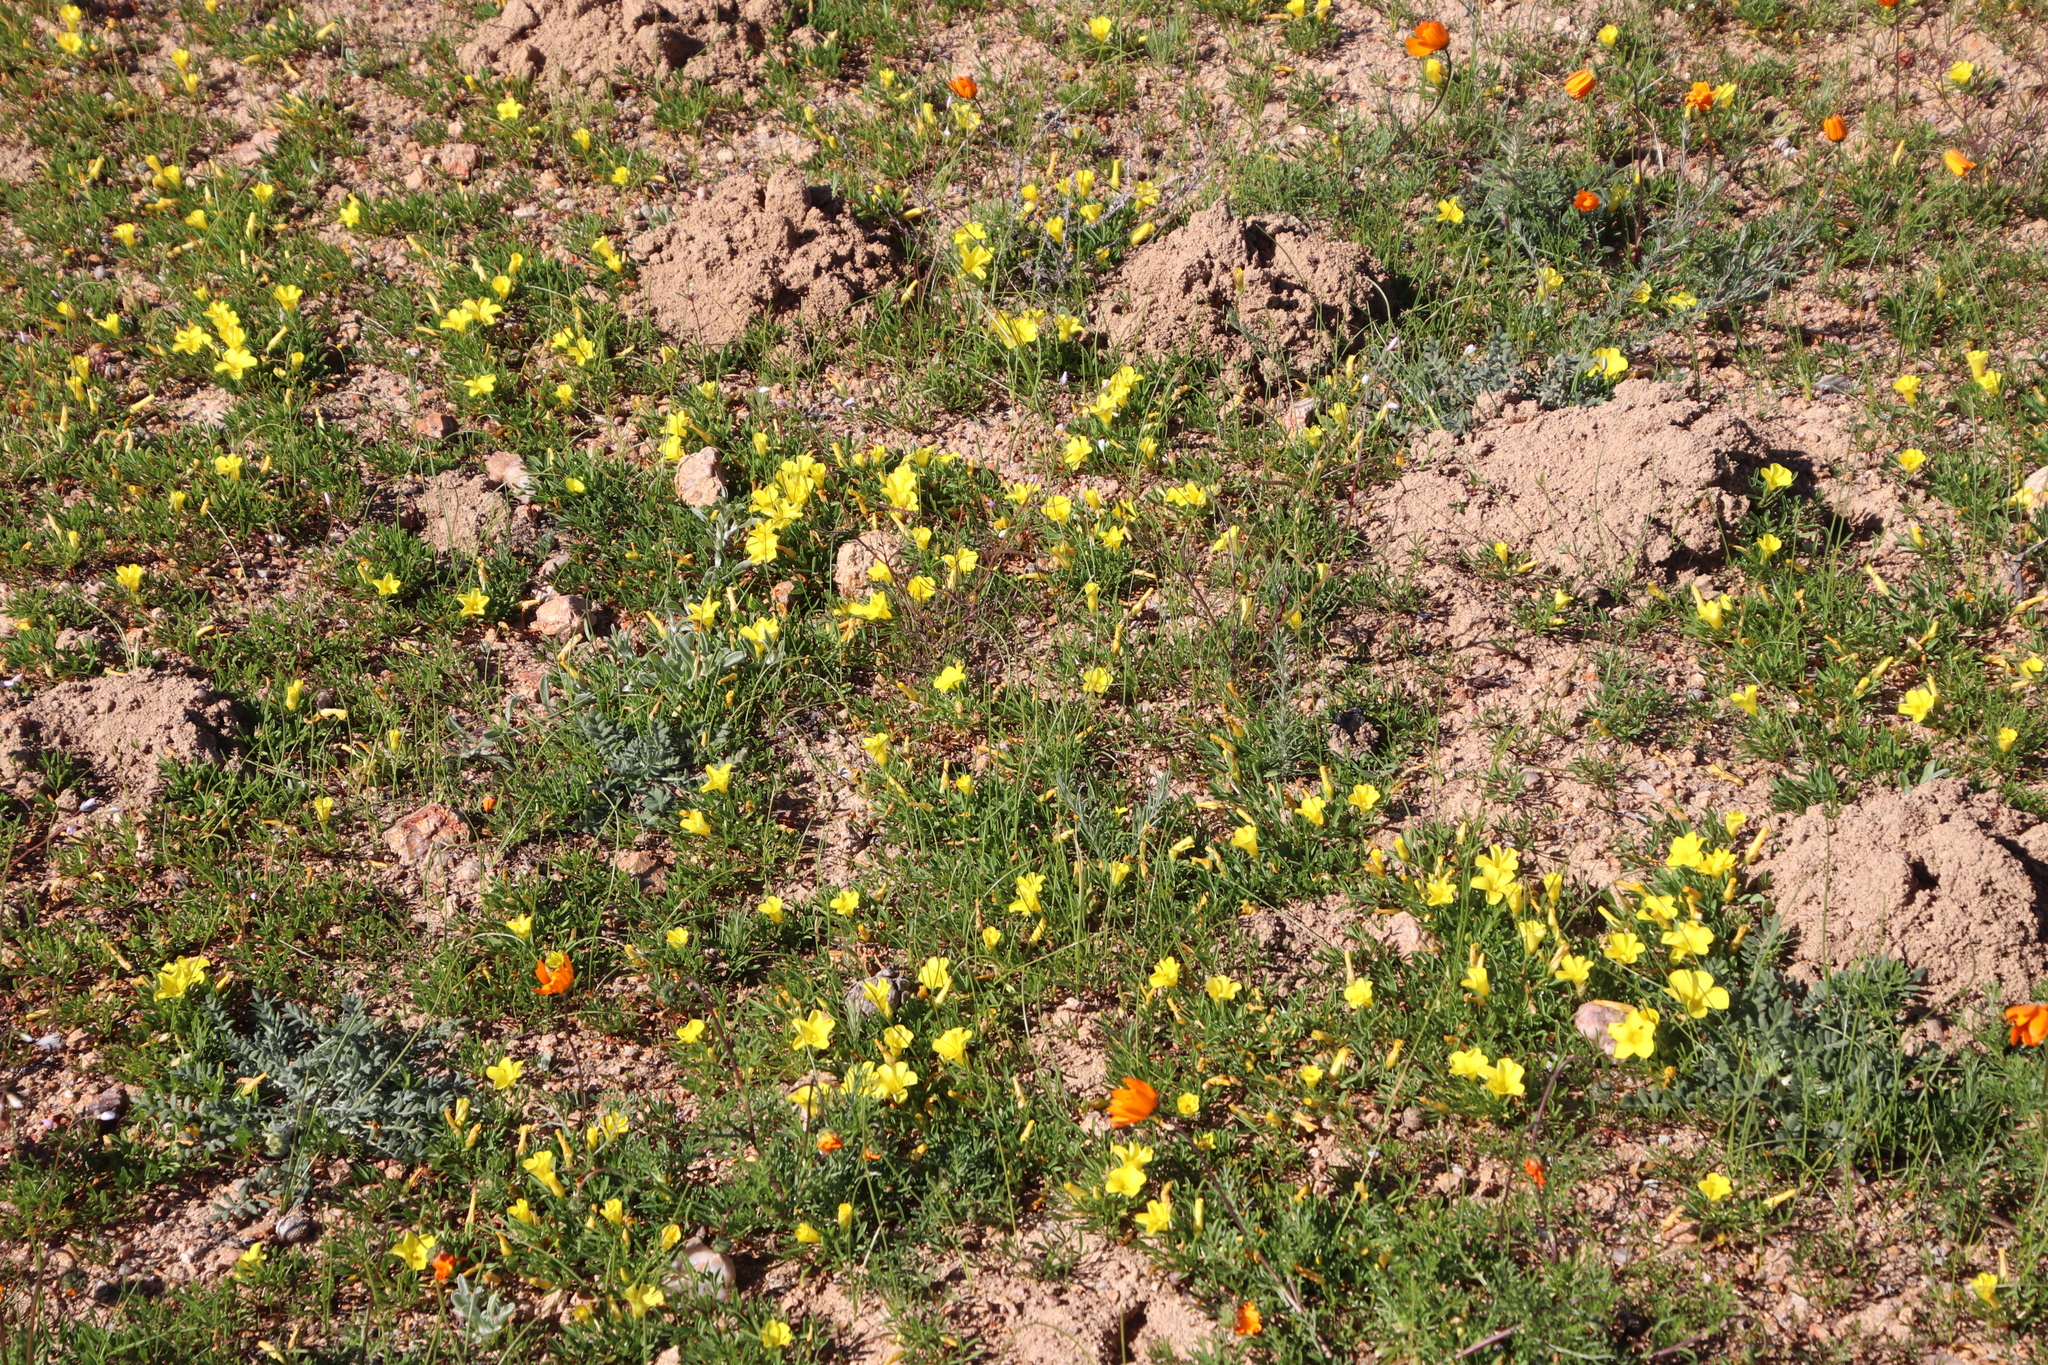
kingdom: Plantae
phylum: Tracheophyta
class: Magnoliopsida
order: Oxalidales
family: Oxalidaceae
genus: Oxalis
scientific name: Oxalis namaquana
